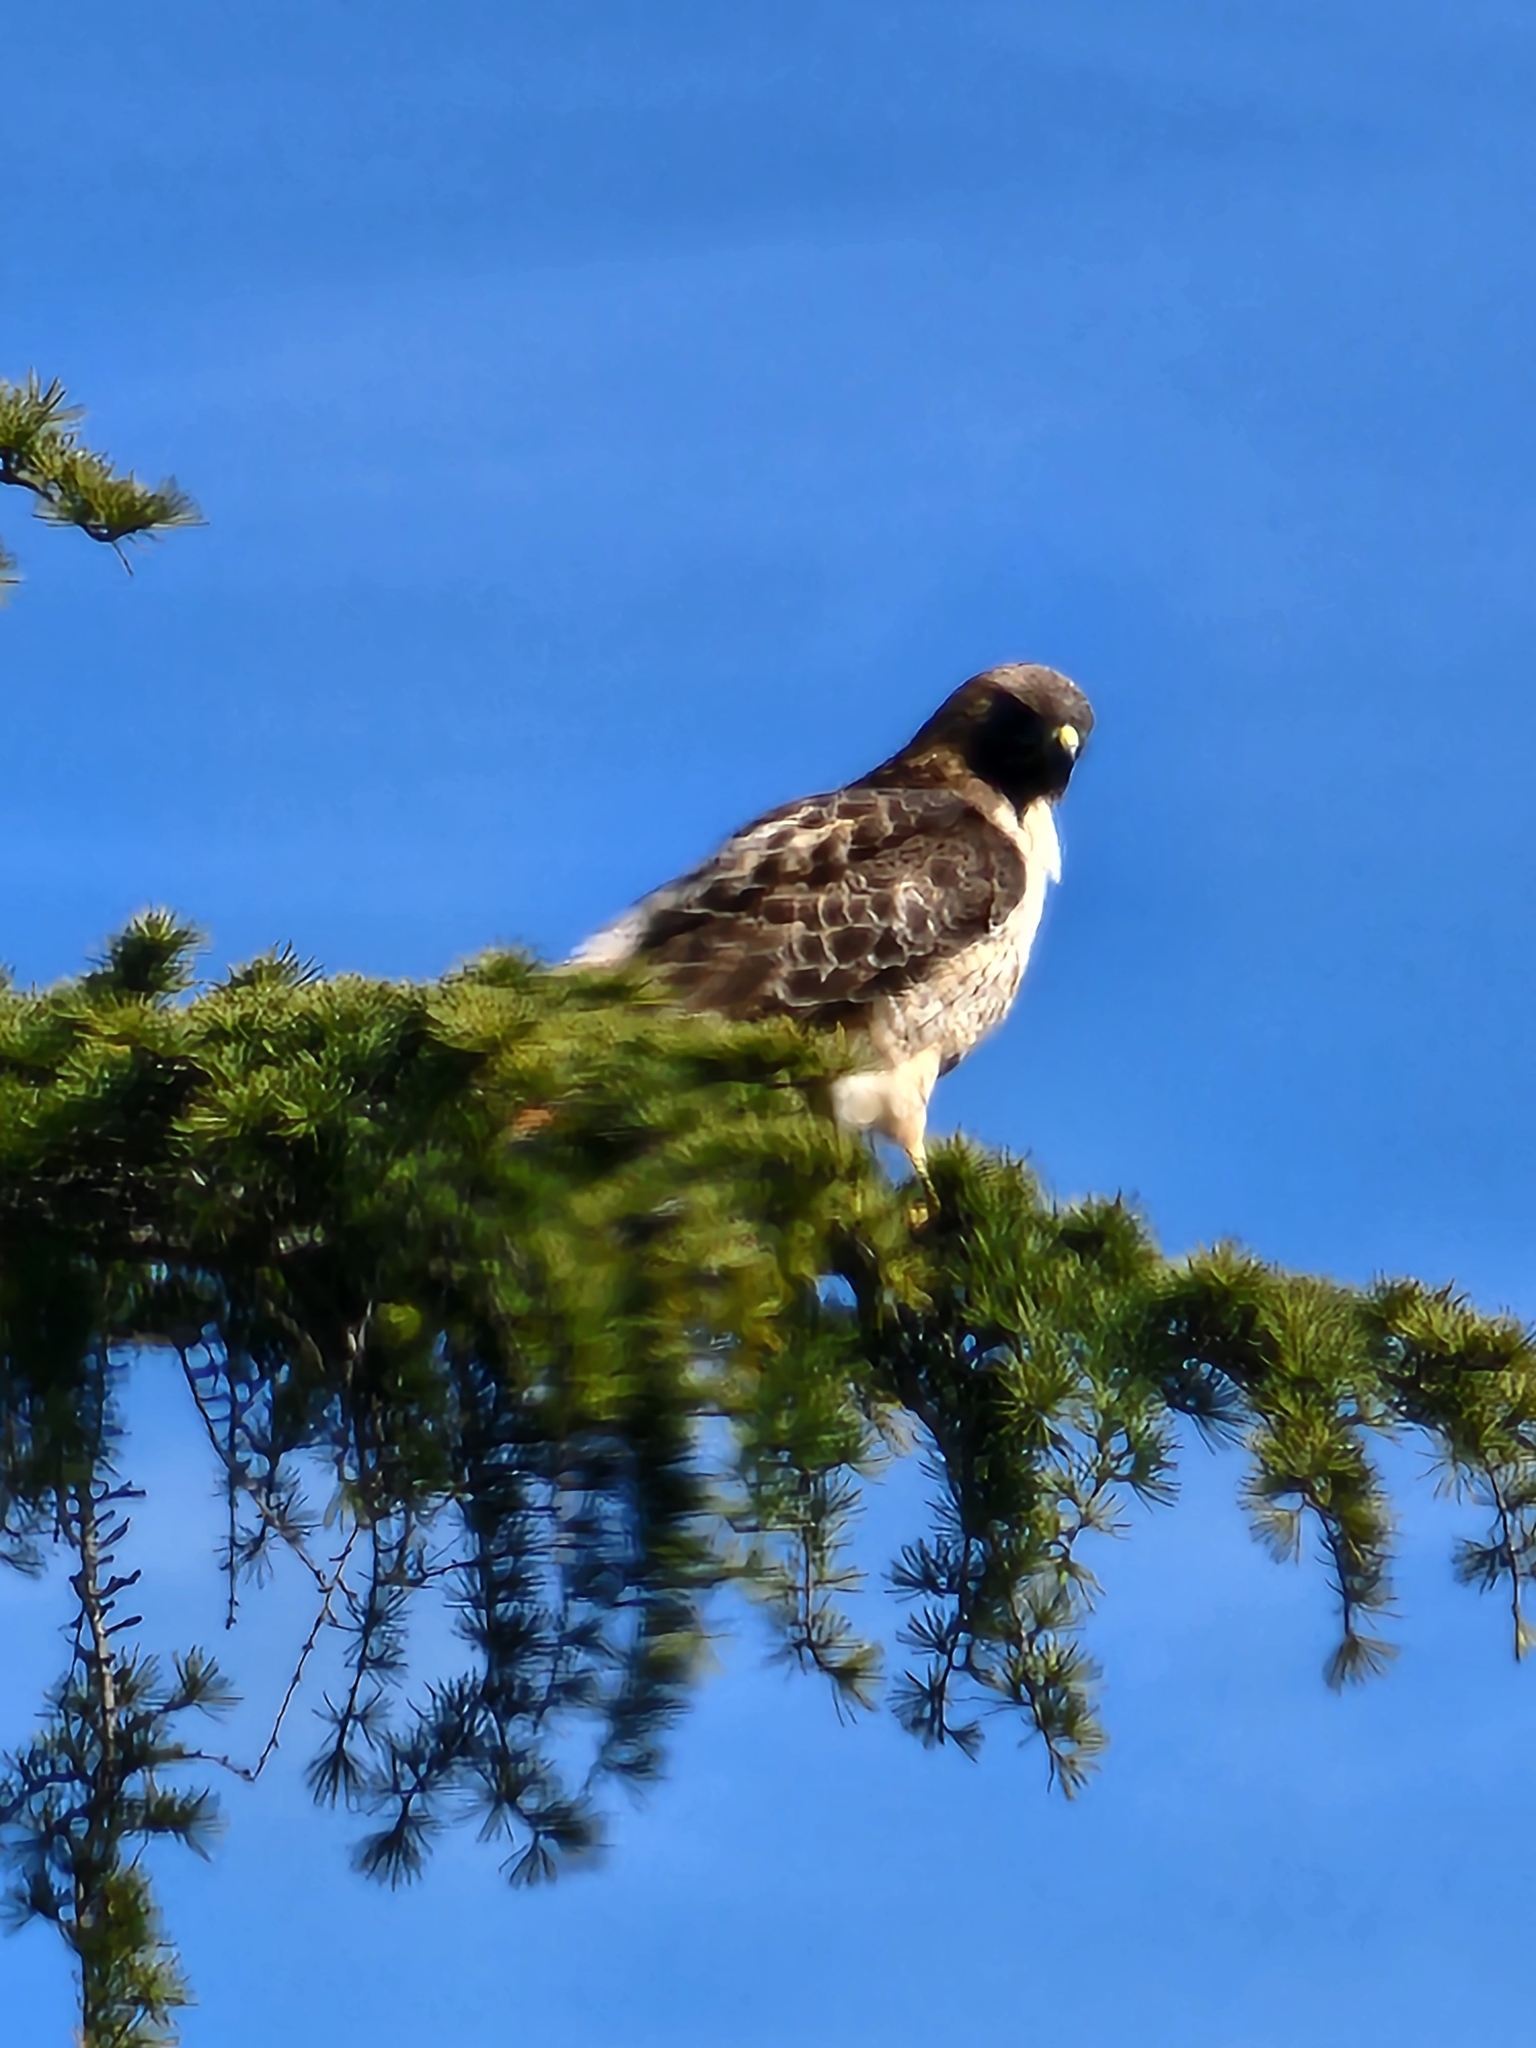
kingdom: Animalia
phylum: Chordata
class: Aves
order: Accipitriformes
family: Accipitridae
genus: Buteo
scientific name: Buteo jamaicensis
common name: Red-tailed hawk
